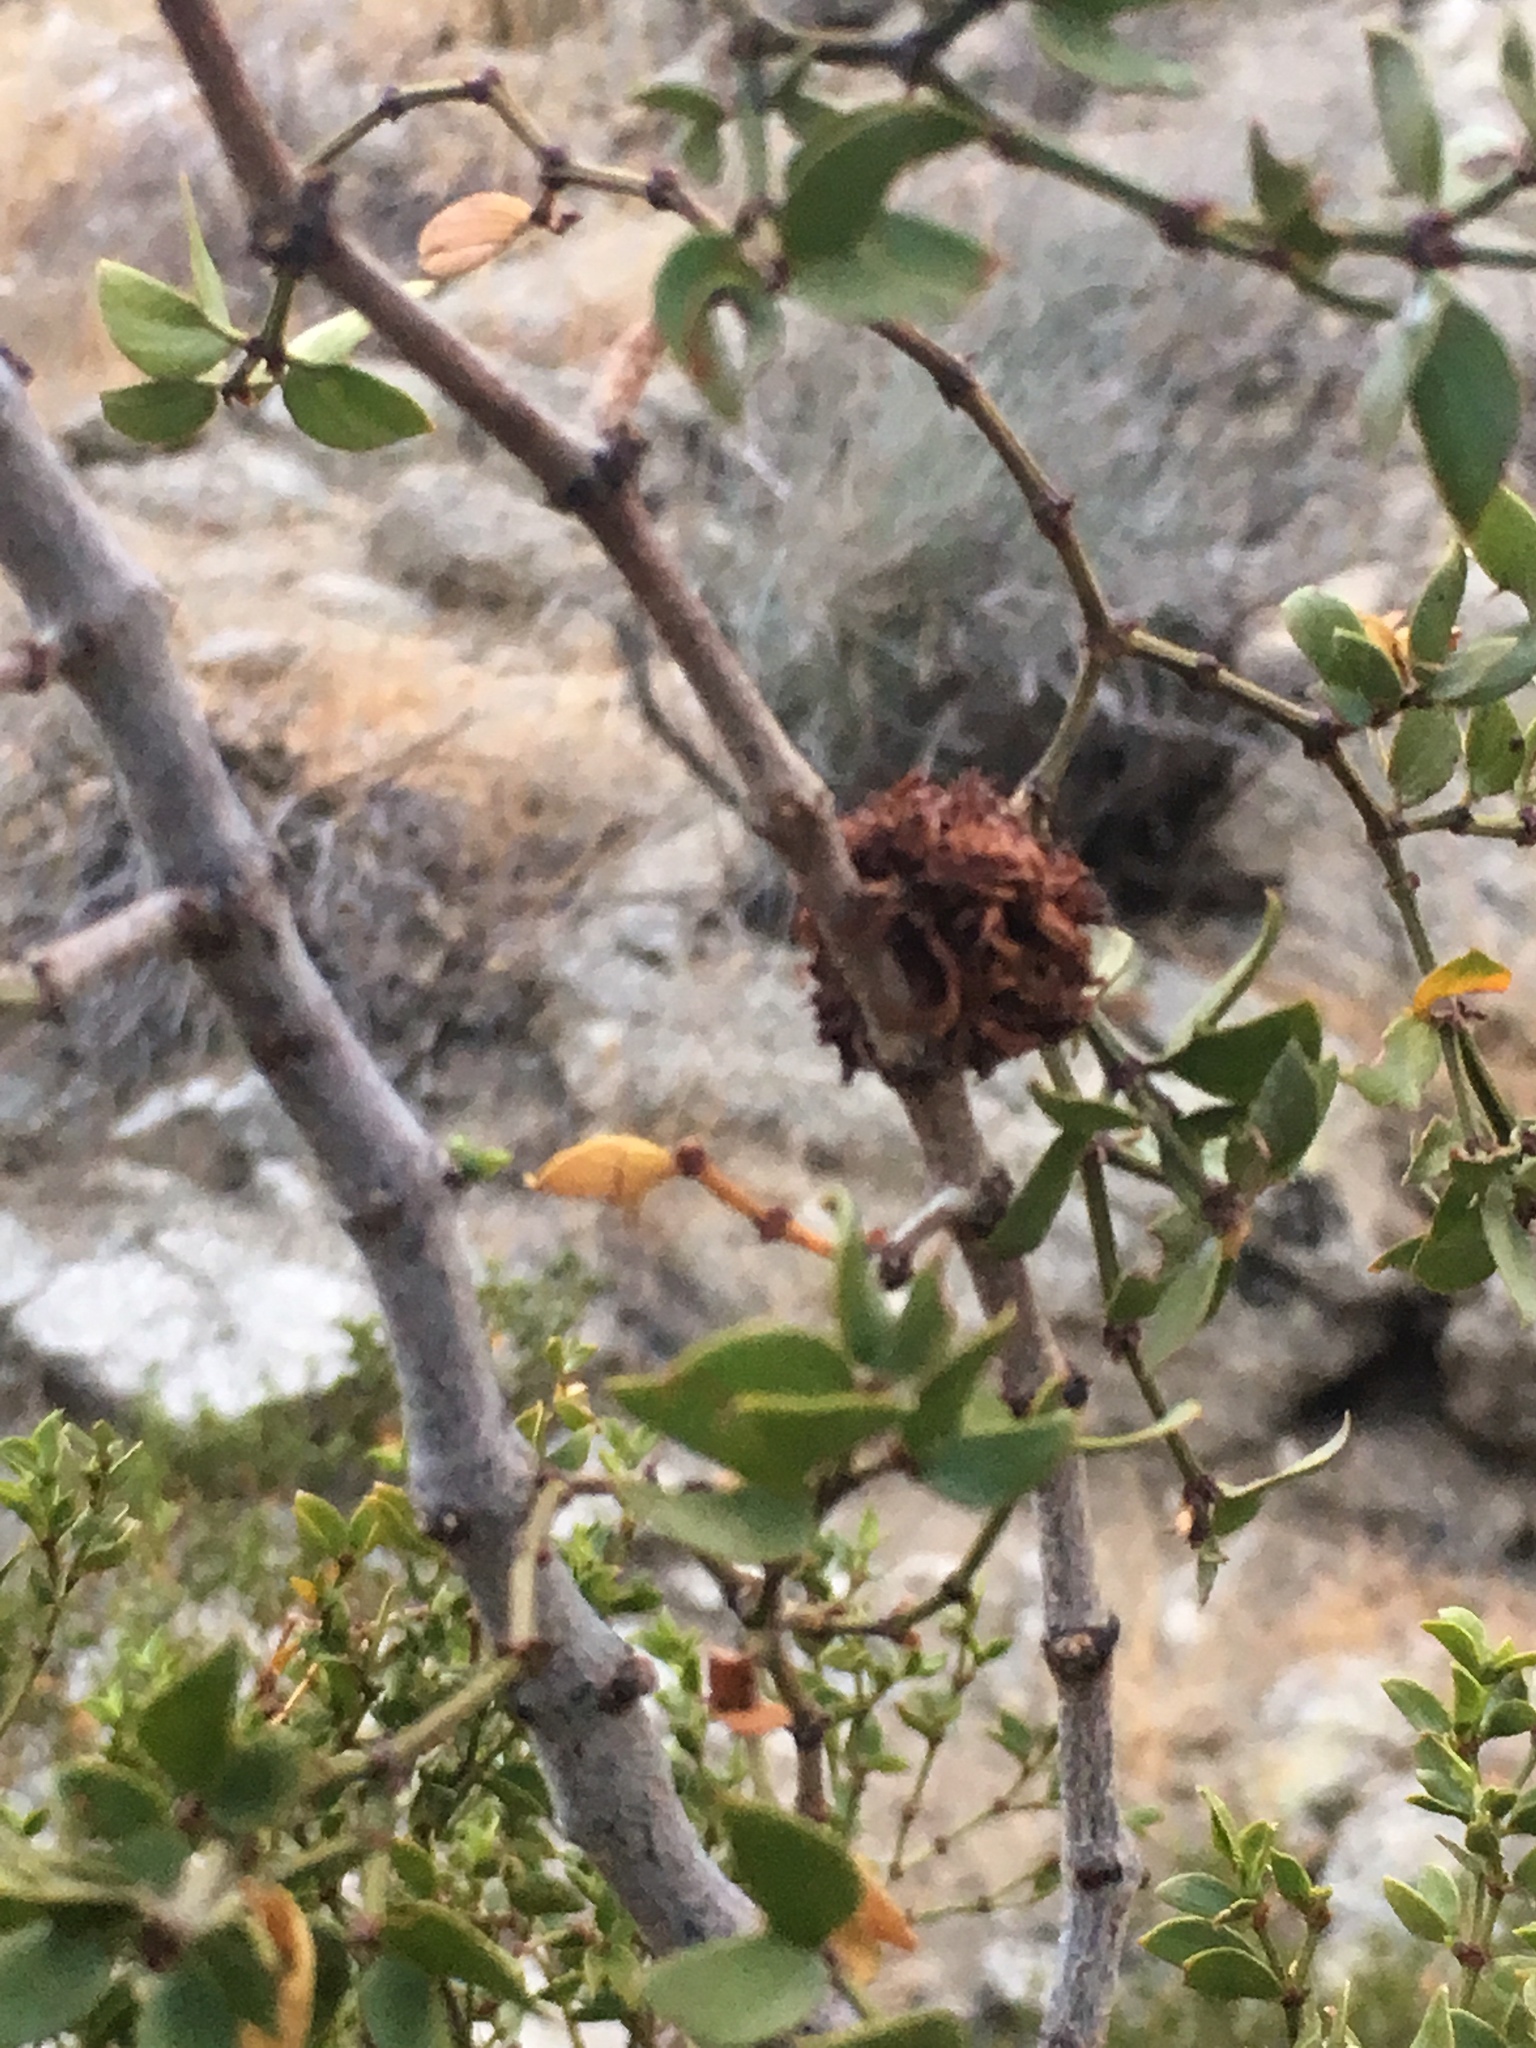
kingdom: Plantae
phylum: Tracheophyta
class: Magnoliopsida
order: Zygophyllales
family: Zygophyllaceae
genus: Larrea
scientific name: Larrea tridentata
